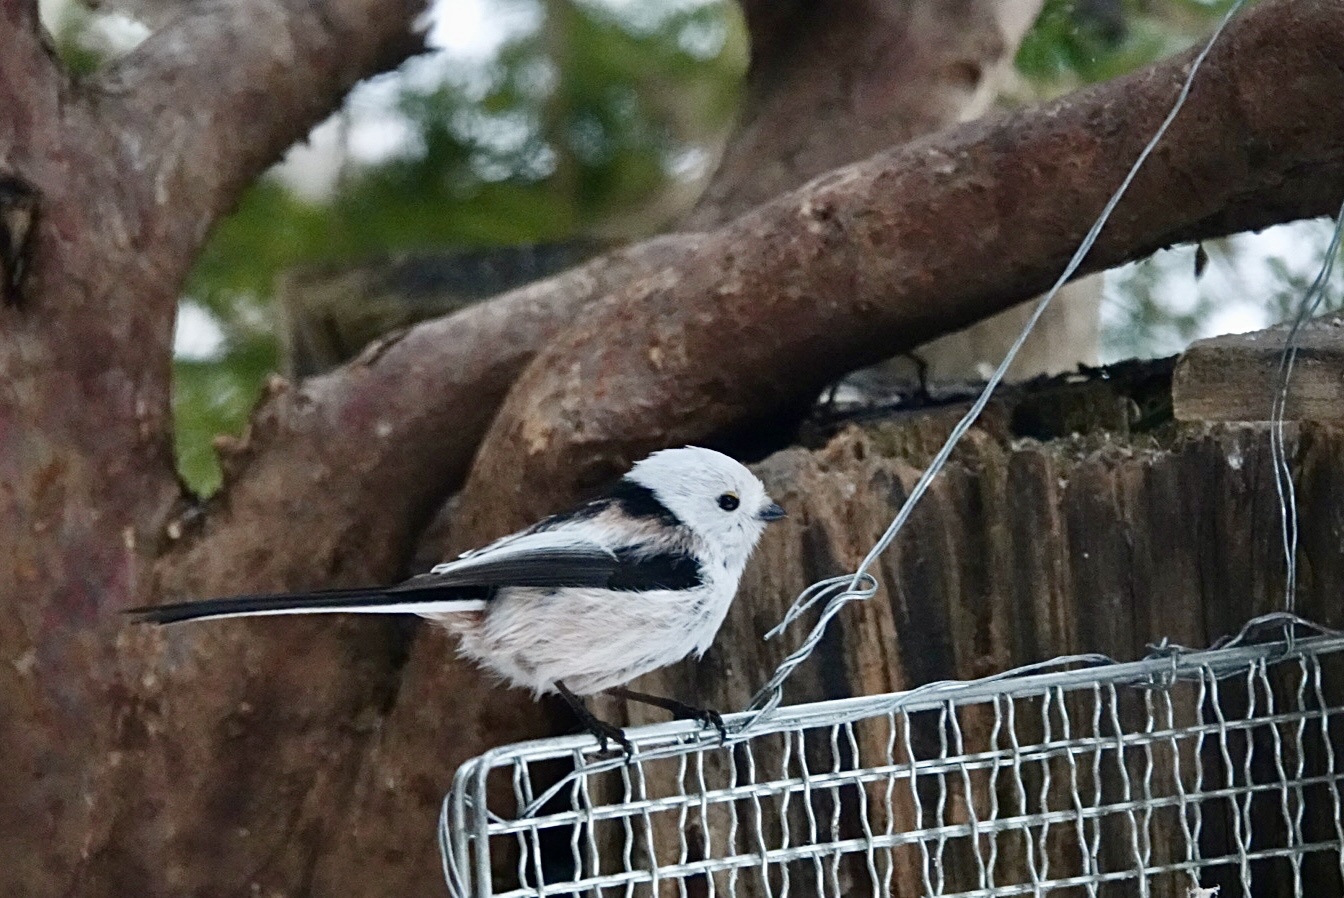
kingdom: Animalia
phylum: Chordata
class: Aves
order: Passeriformes
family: Aegithalidae
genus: Aegithalos
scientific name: Aegithalos caudatus
